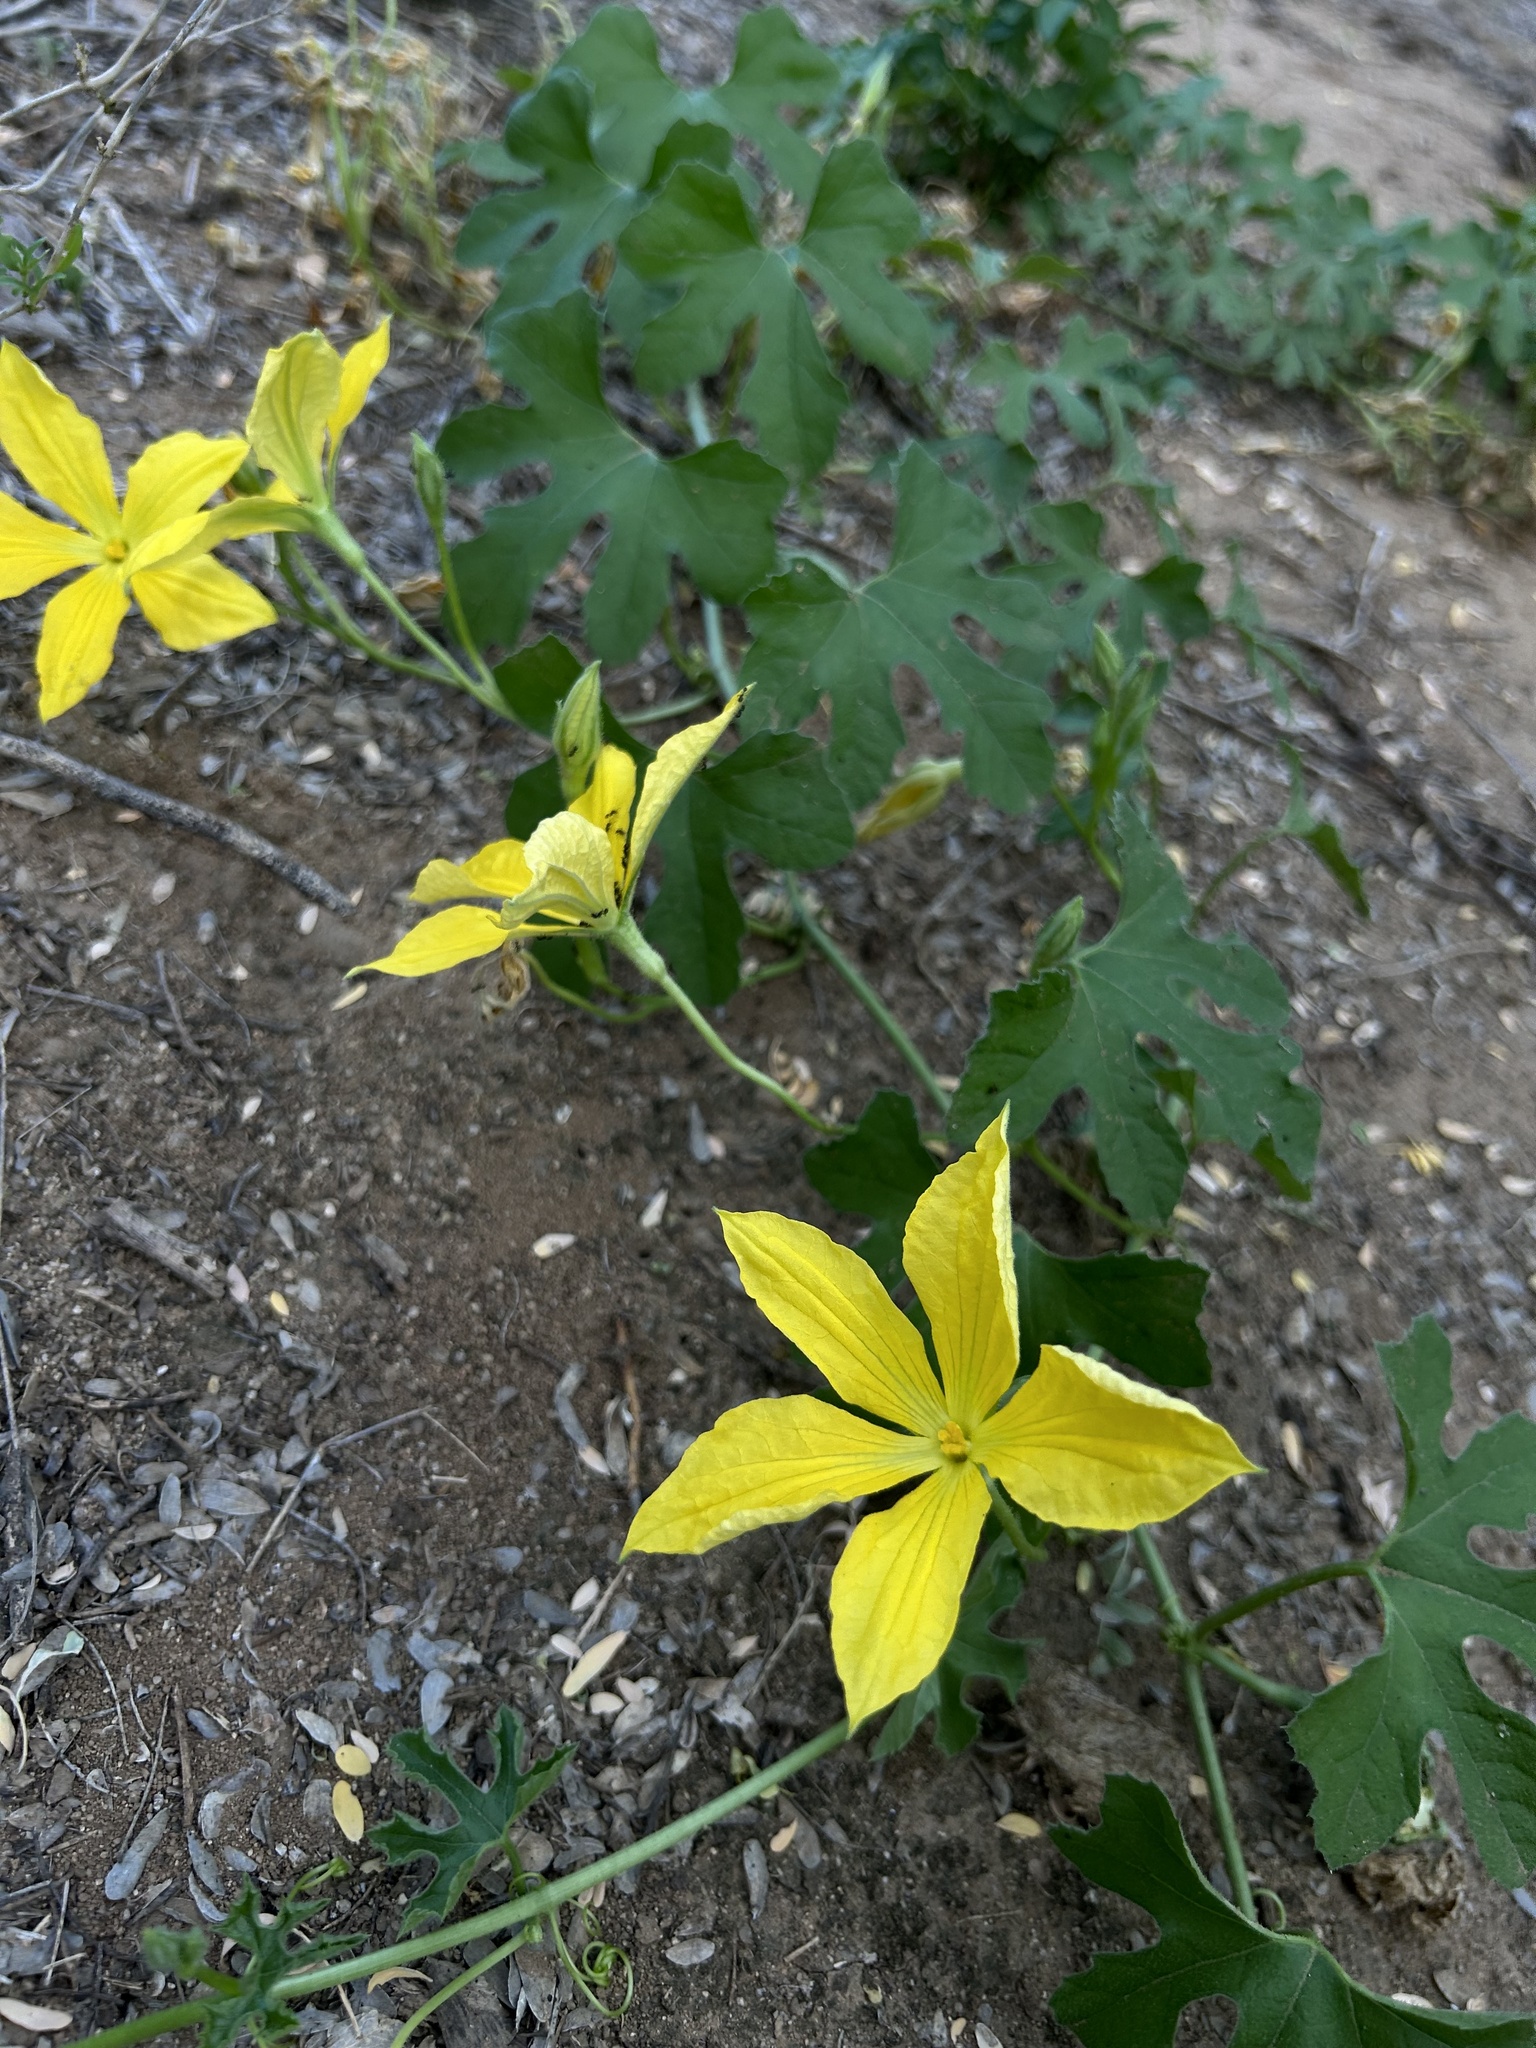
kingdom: Plantae
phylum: Tracheophyta
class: Magnoliopsida
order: Cucurbitales
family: Cucurbitaceae
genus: Apodanthera
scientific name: Apodanthera palmeri
